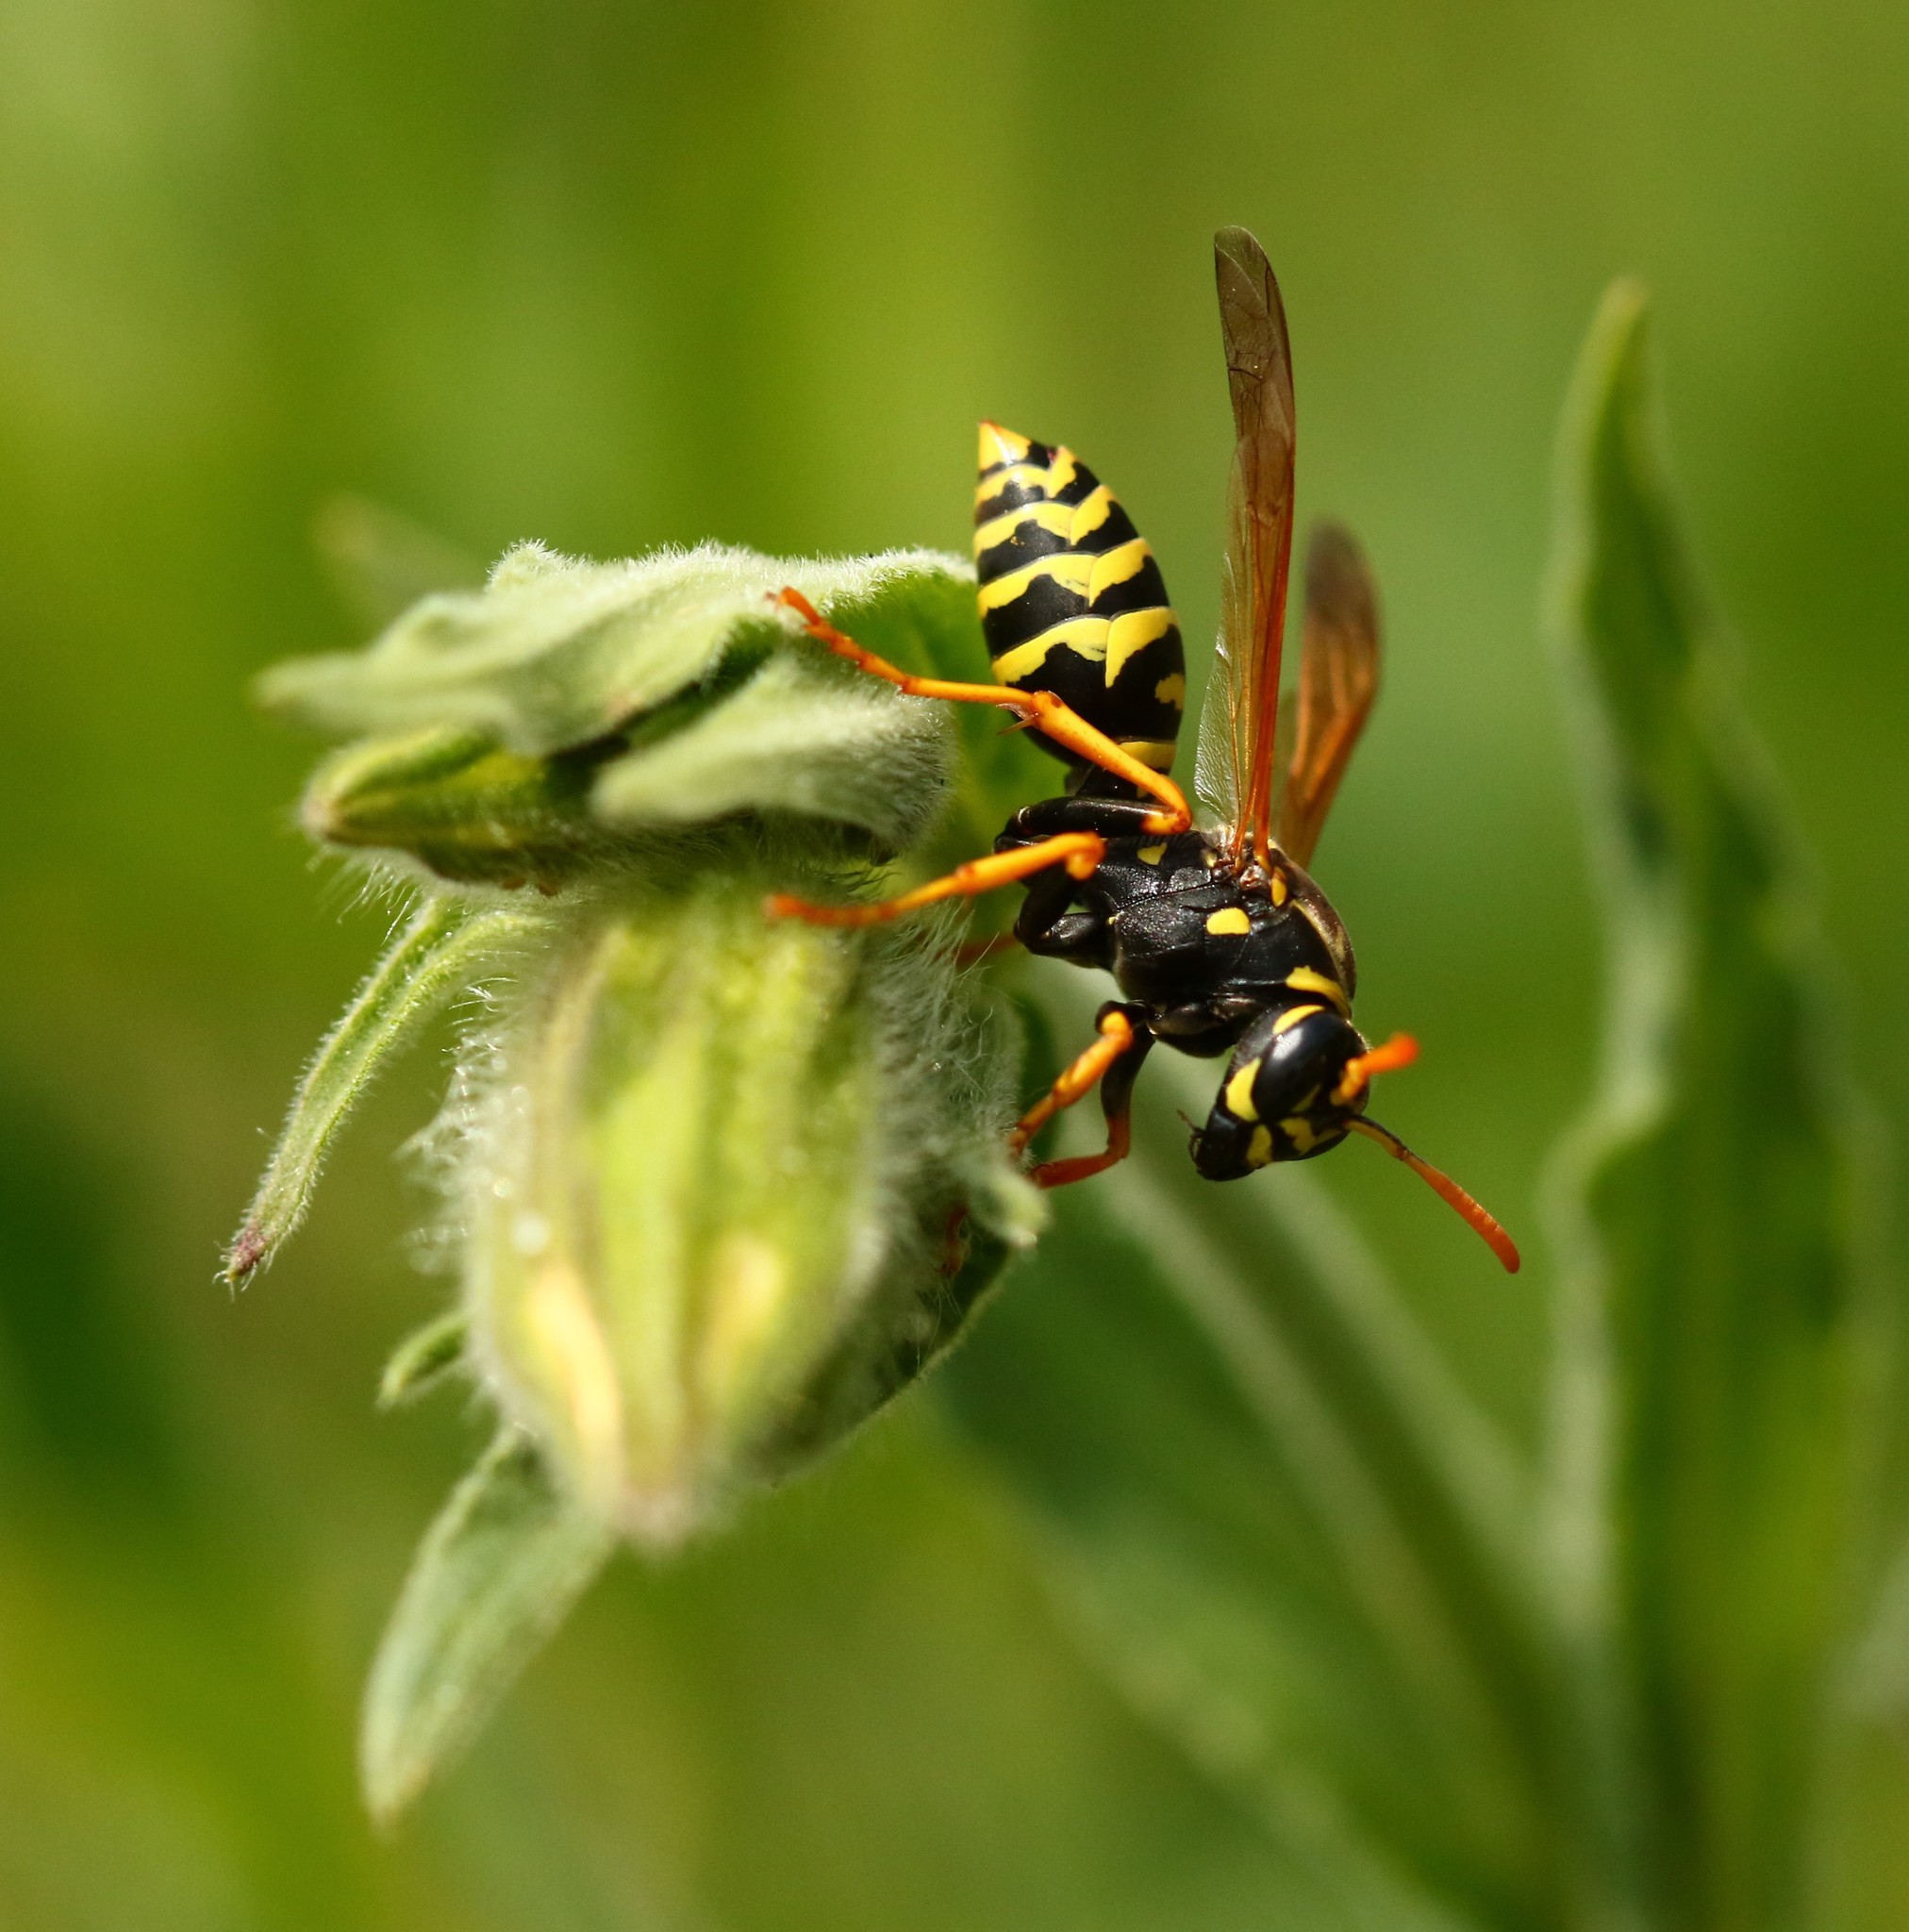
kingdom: Animalia
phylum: Arthropoda
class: Insecta
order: Hymenoptera
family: Eumenidae
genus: Polistes
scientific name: Polistes dominula
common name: Paper wasp
